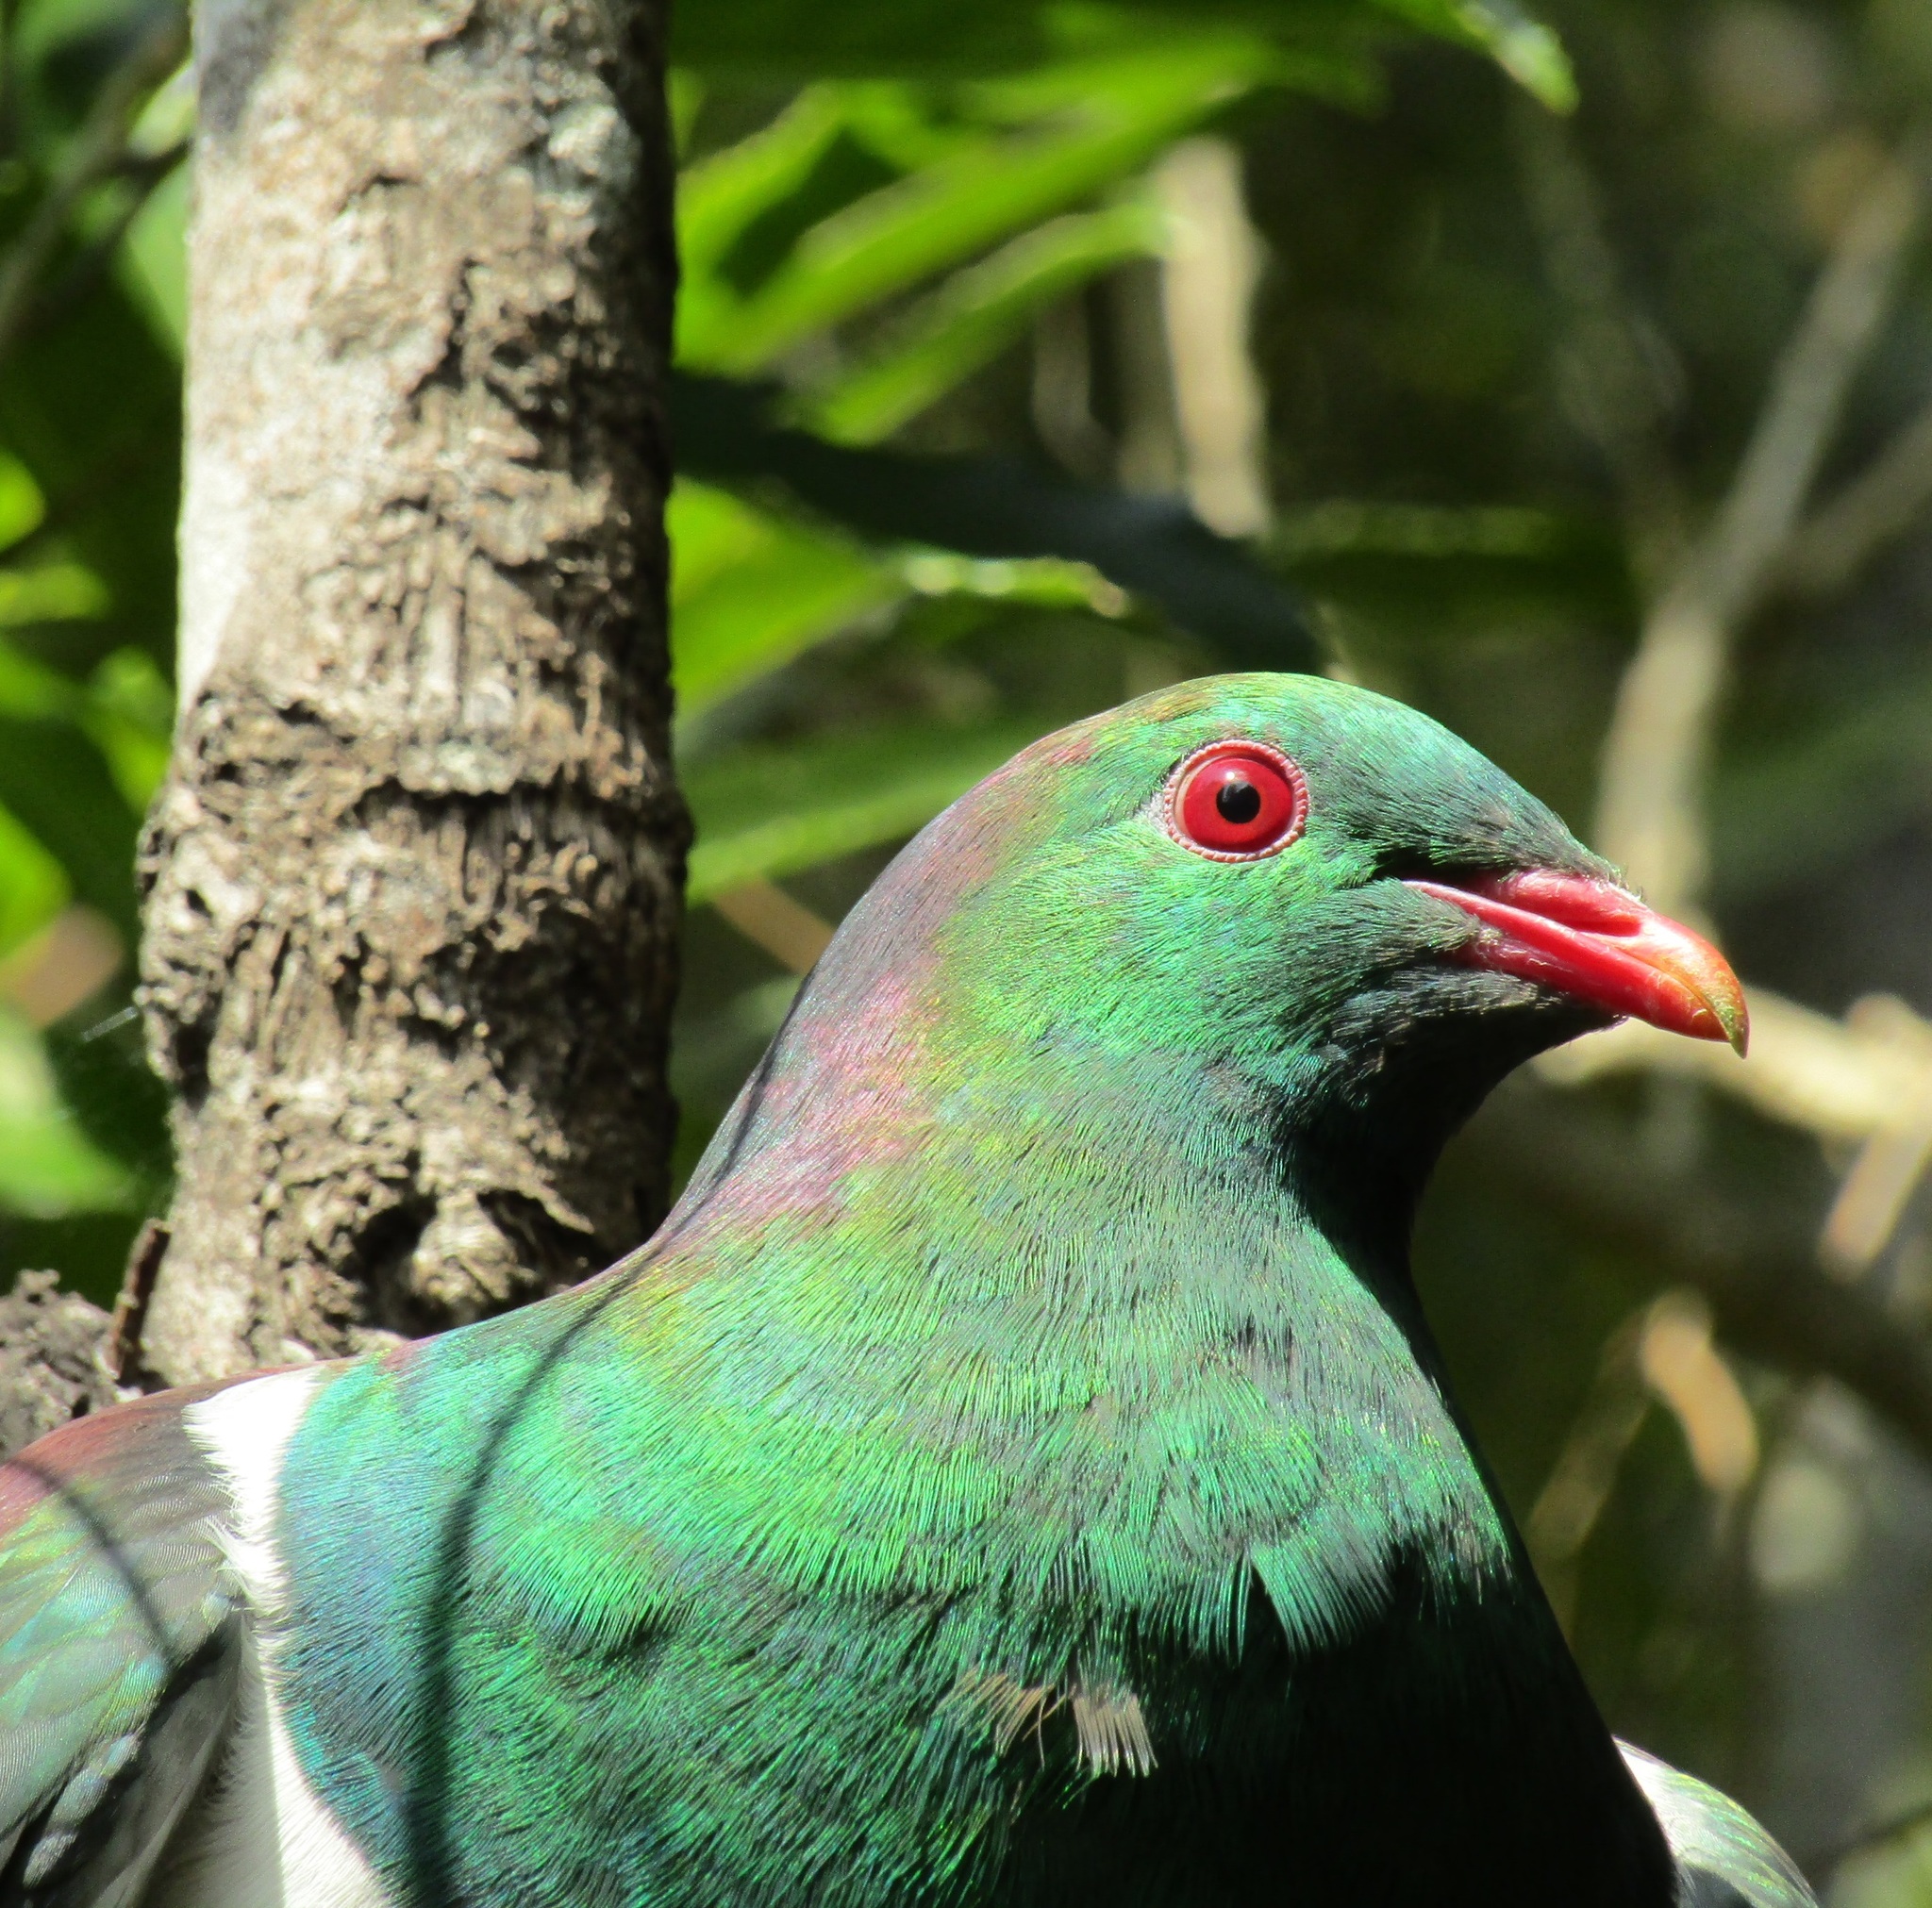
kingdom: Animalia
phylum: Chordata
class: Aves
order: Columbiformes
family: Columbidae
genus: Hemiphaga
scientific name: Hemiphaga novaeseelandiae
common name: New zealand pigeon
